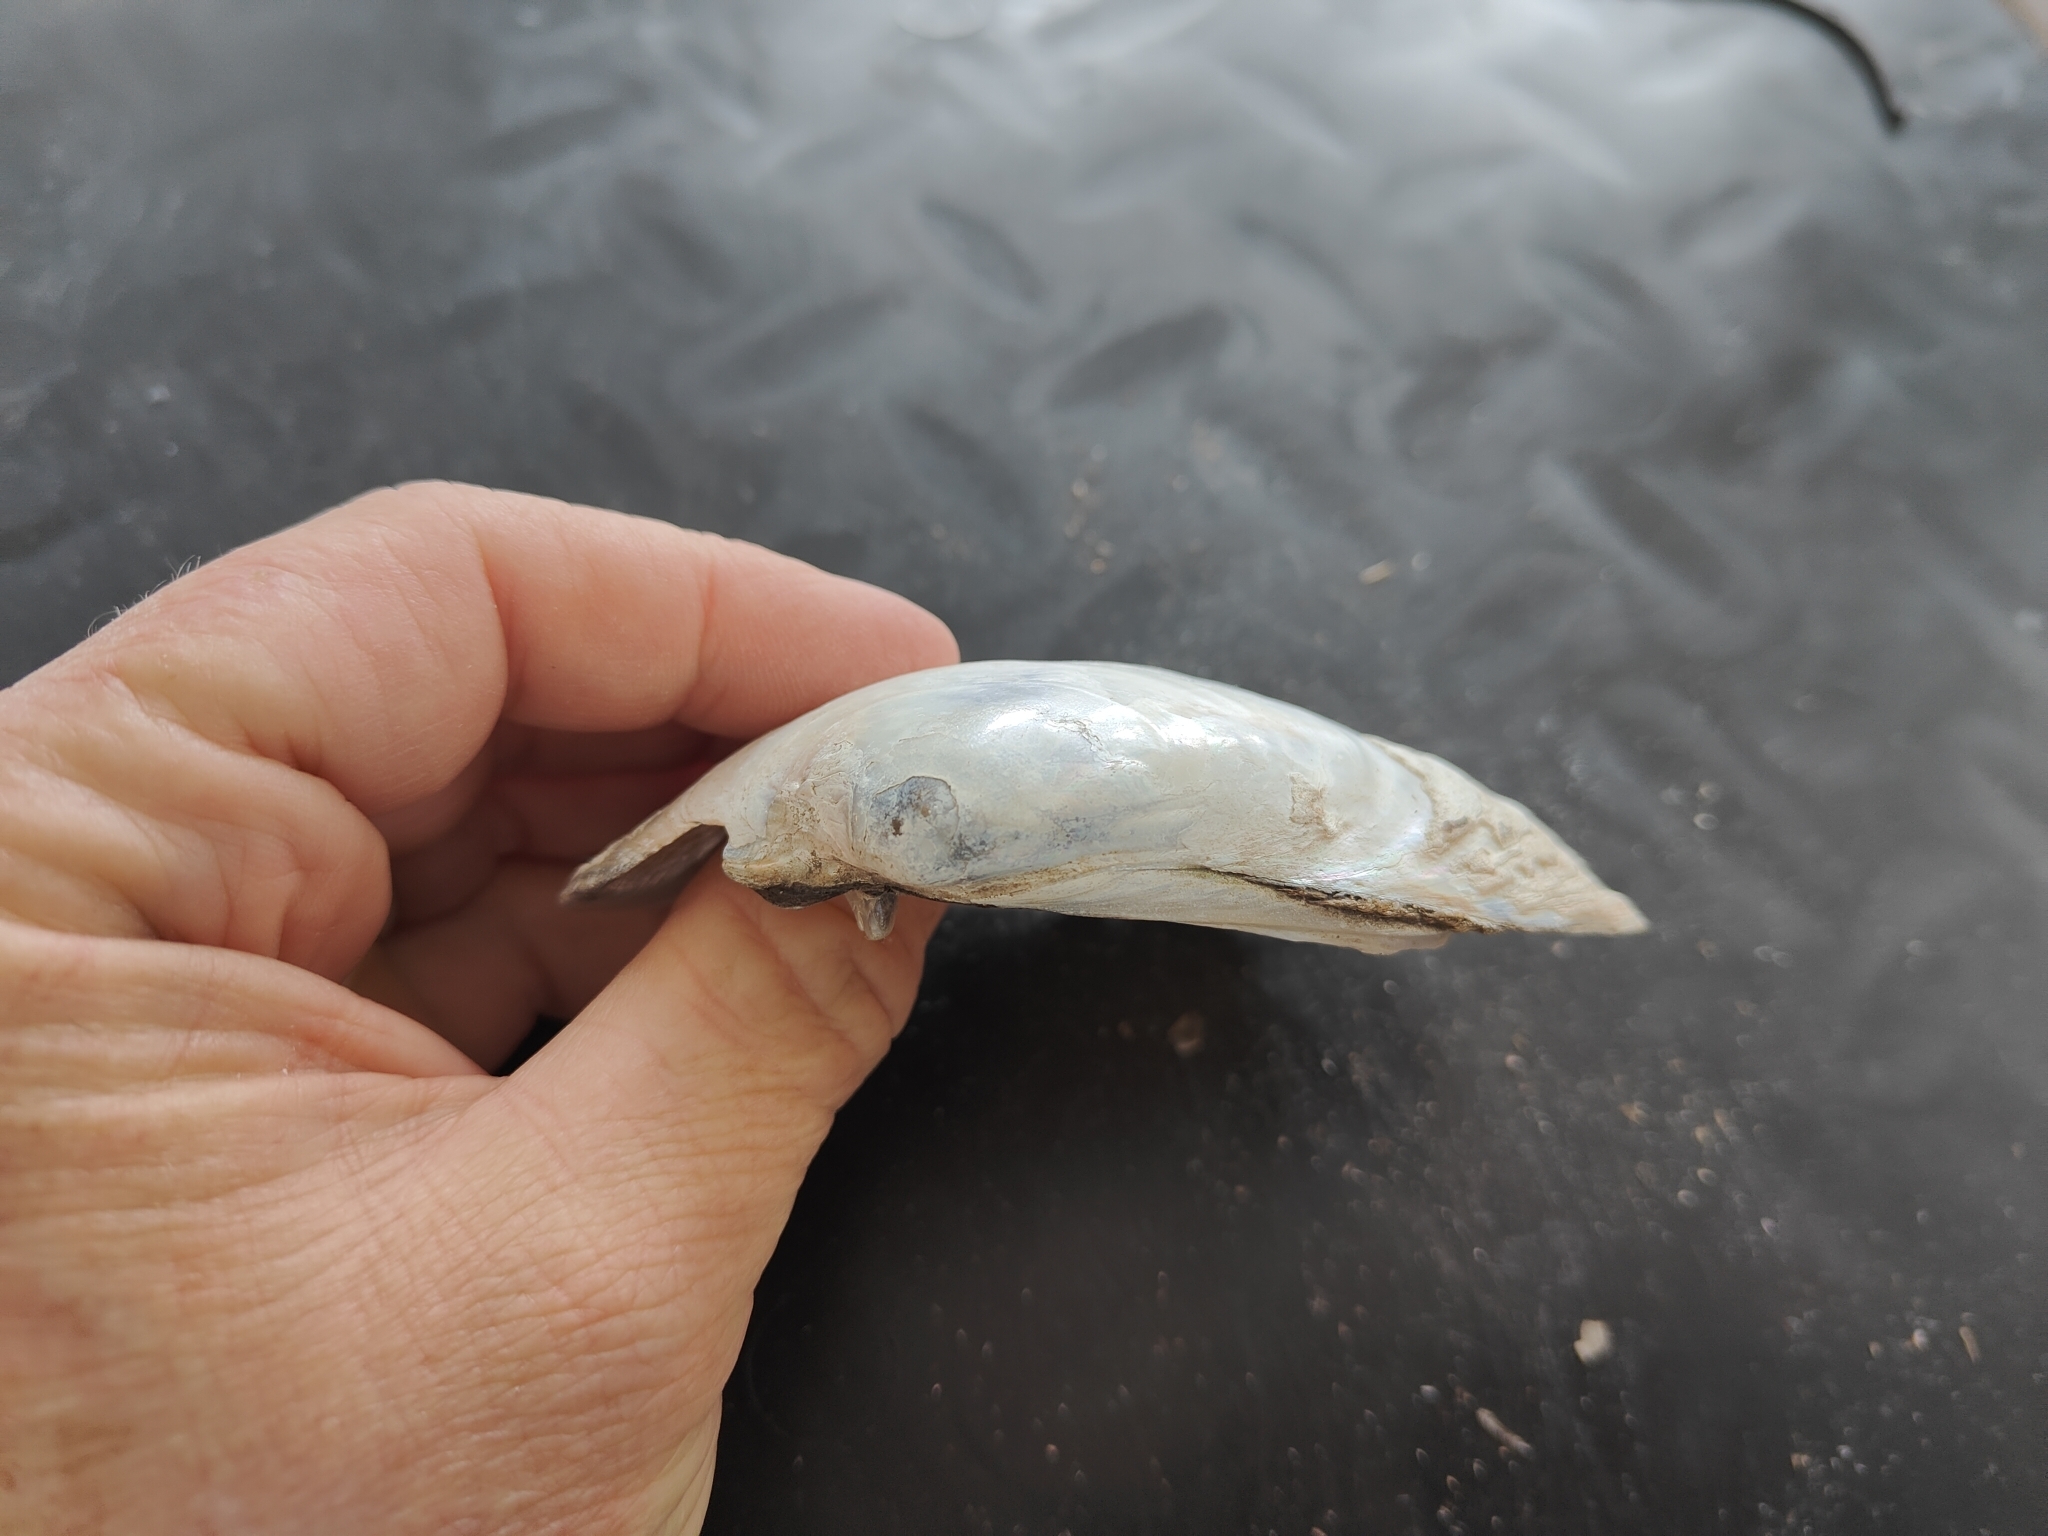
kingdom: Animalia
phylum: Mollusca
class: Bivalvia
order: Unionida
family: Unionidae
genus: Lampsilis
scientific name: Lampsilis cardium
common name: Plain pocketbook
